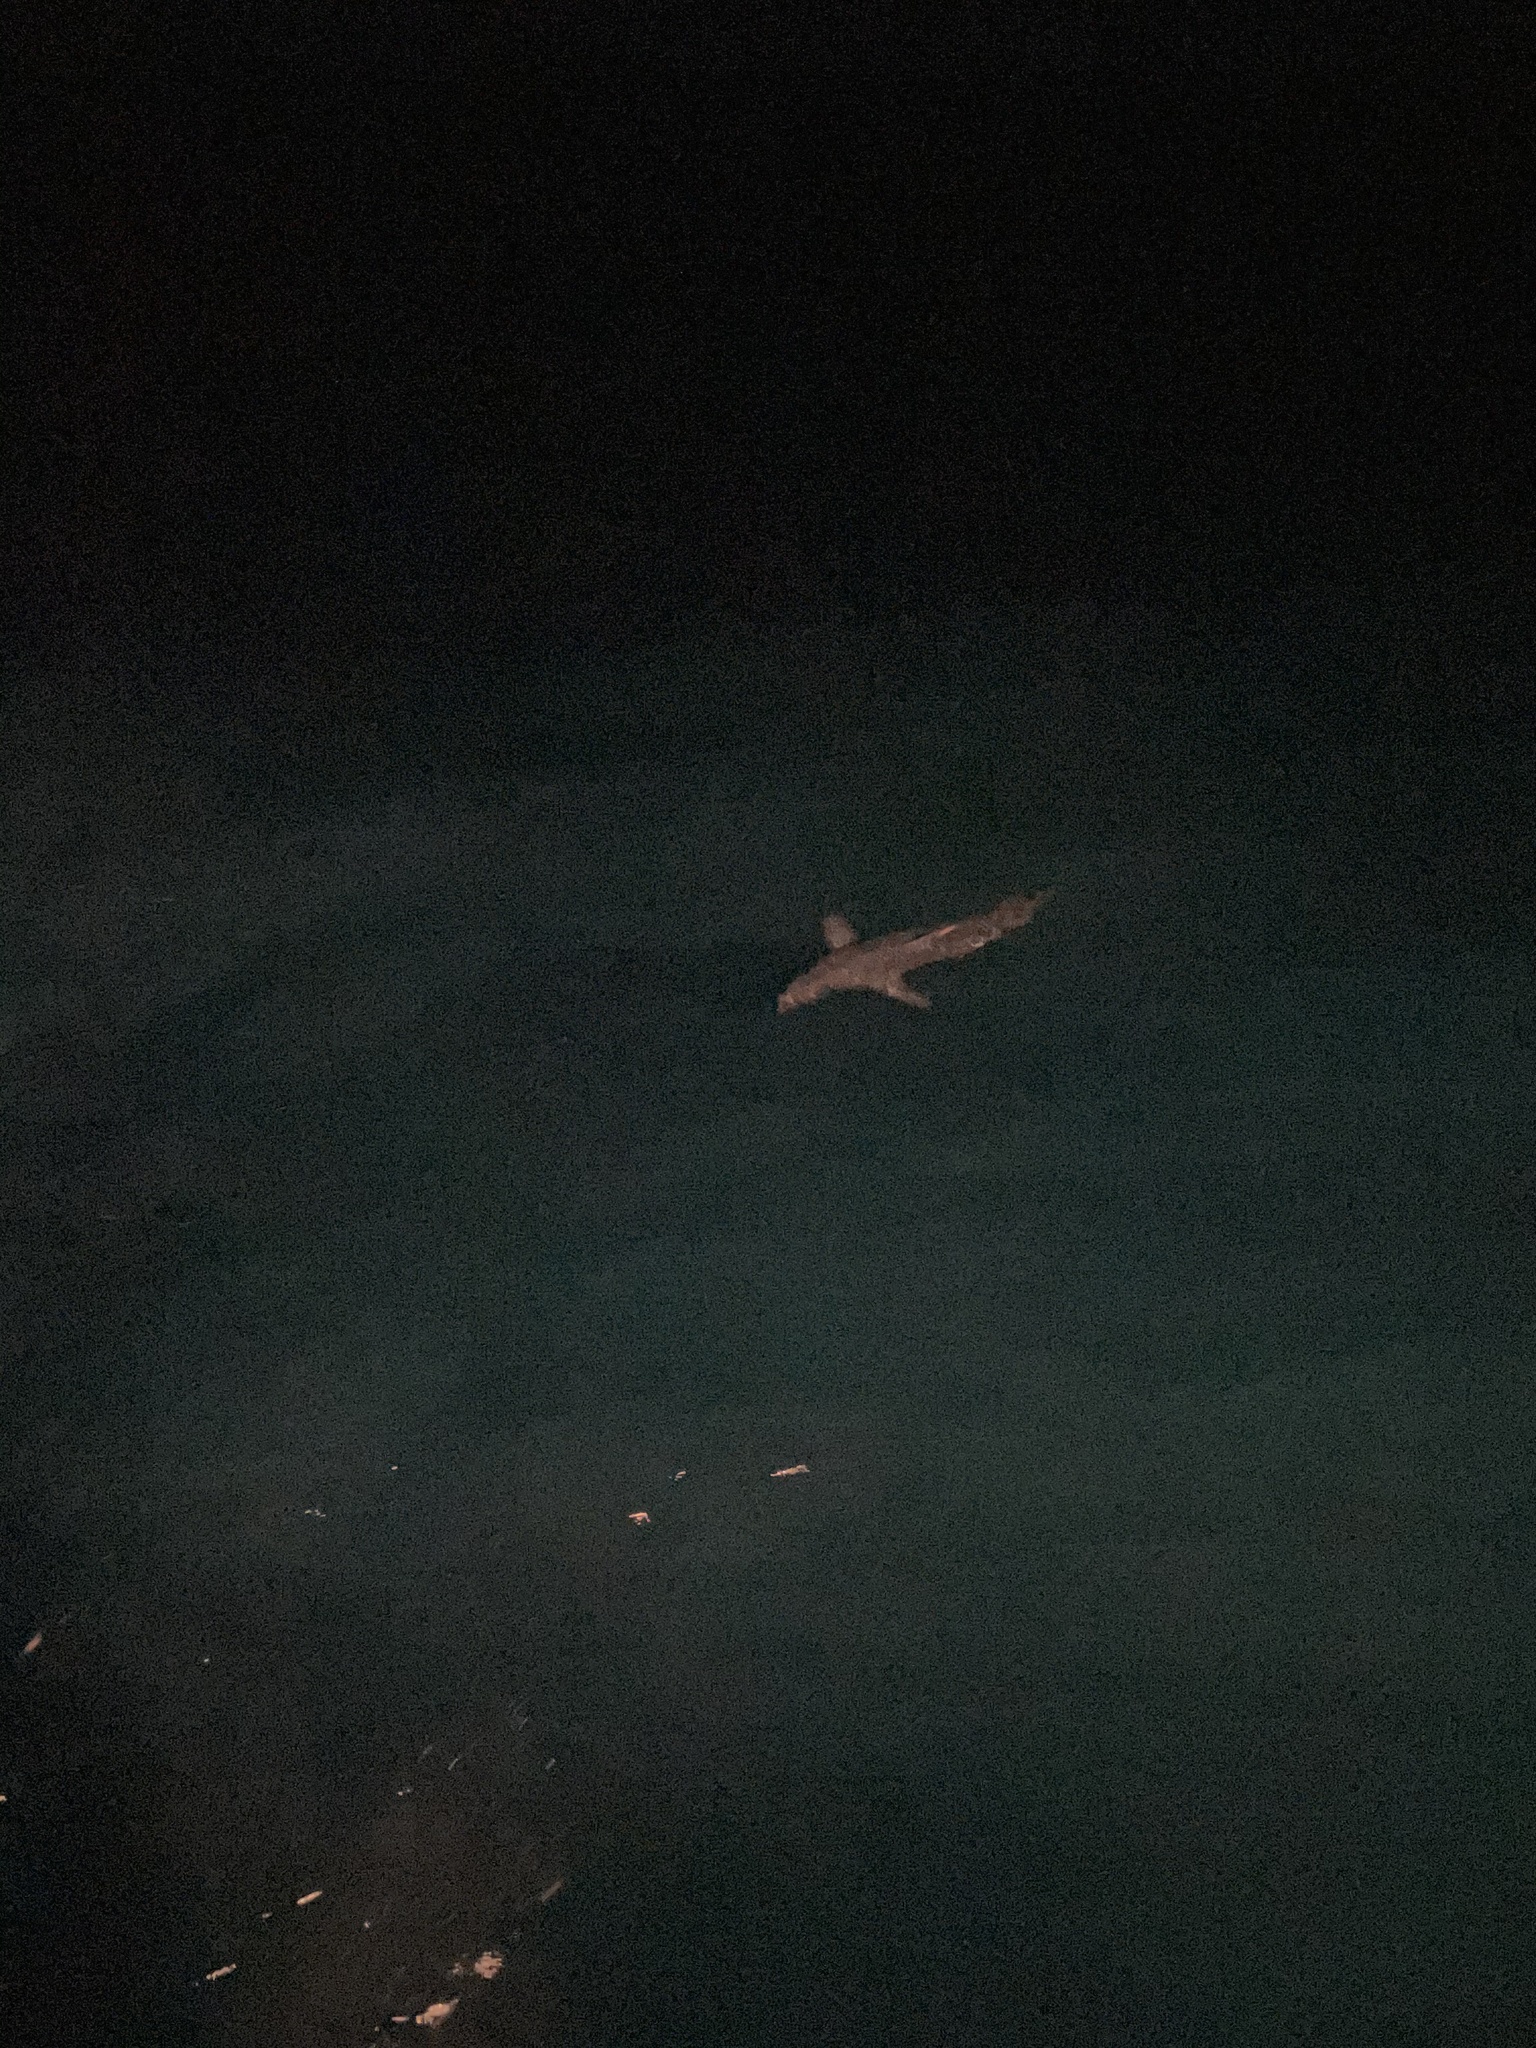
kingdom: Animalia
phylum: Chordata
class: Elasmobranchii
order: Lamniformes
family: Lamnidae
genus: Isurus
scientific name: Isurus oxyrinchus
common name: Shortfin mako
